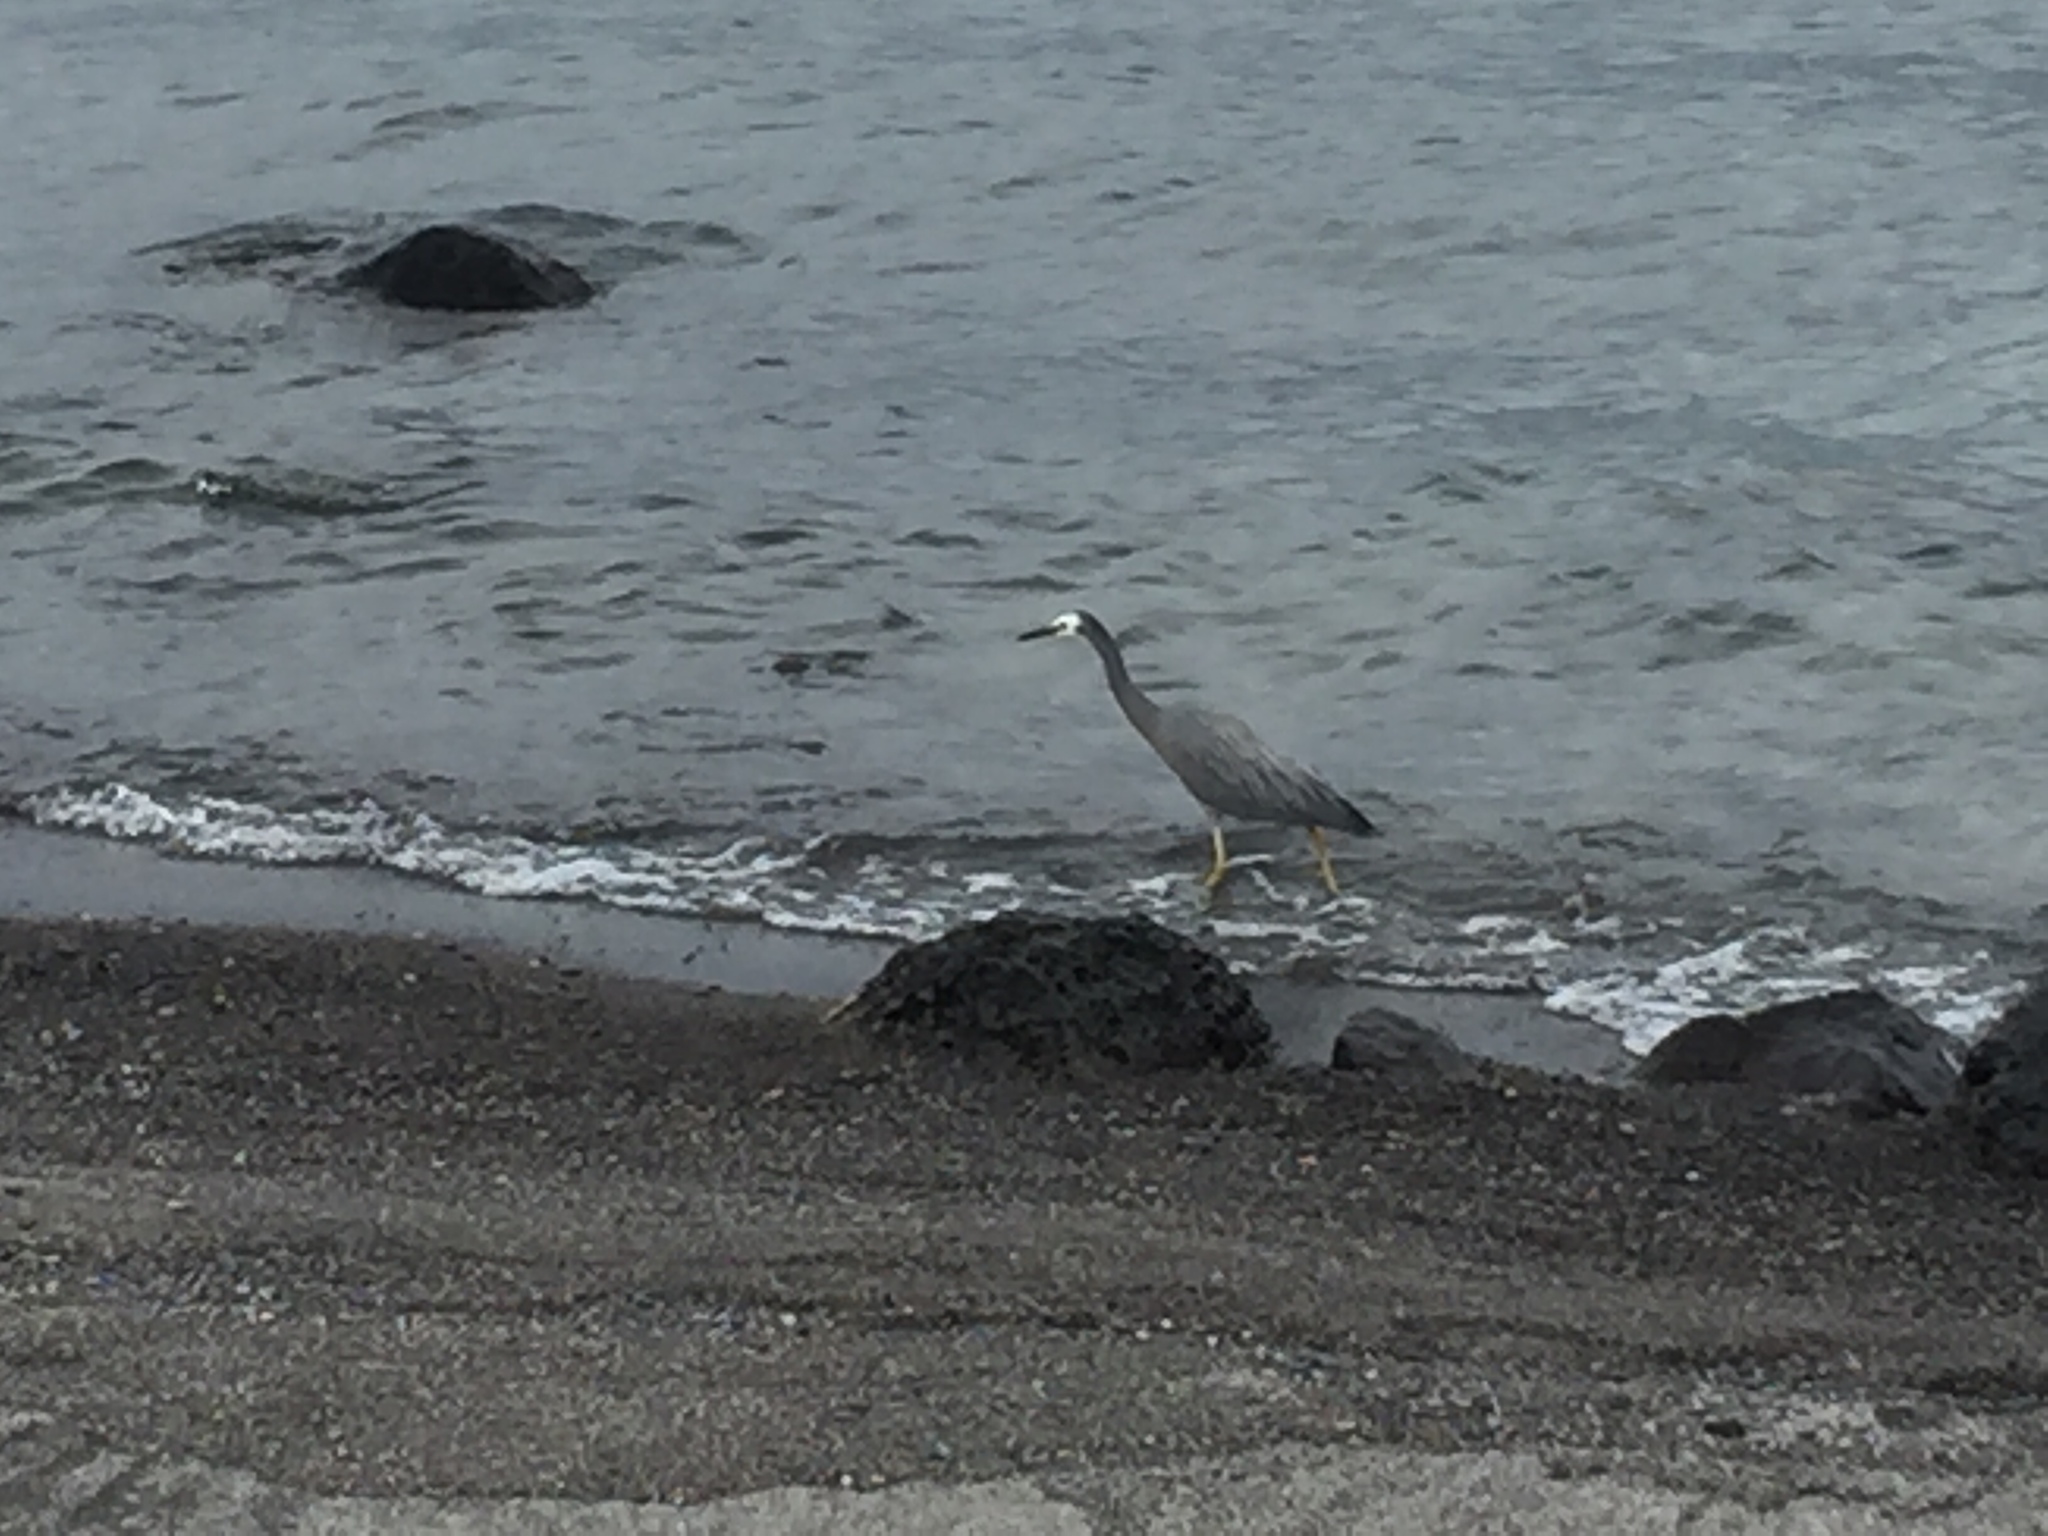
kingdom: Animalia
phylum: Chordata
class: Aves
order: Pelecaniformes
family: Ardeidae
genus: Egretta
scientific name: Egretta novaehollandiae
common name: White-faced heron
